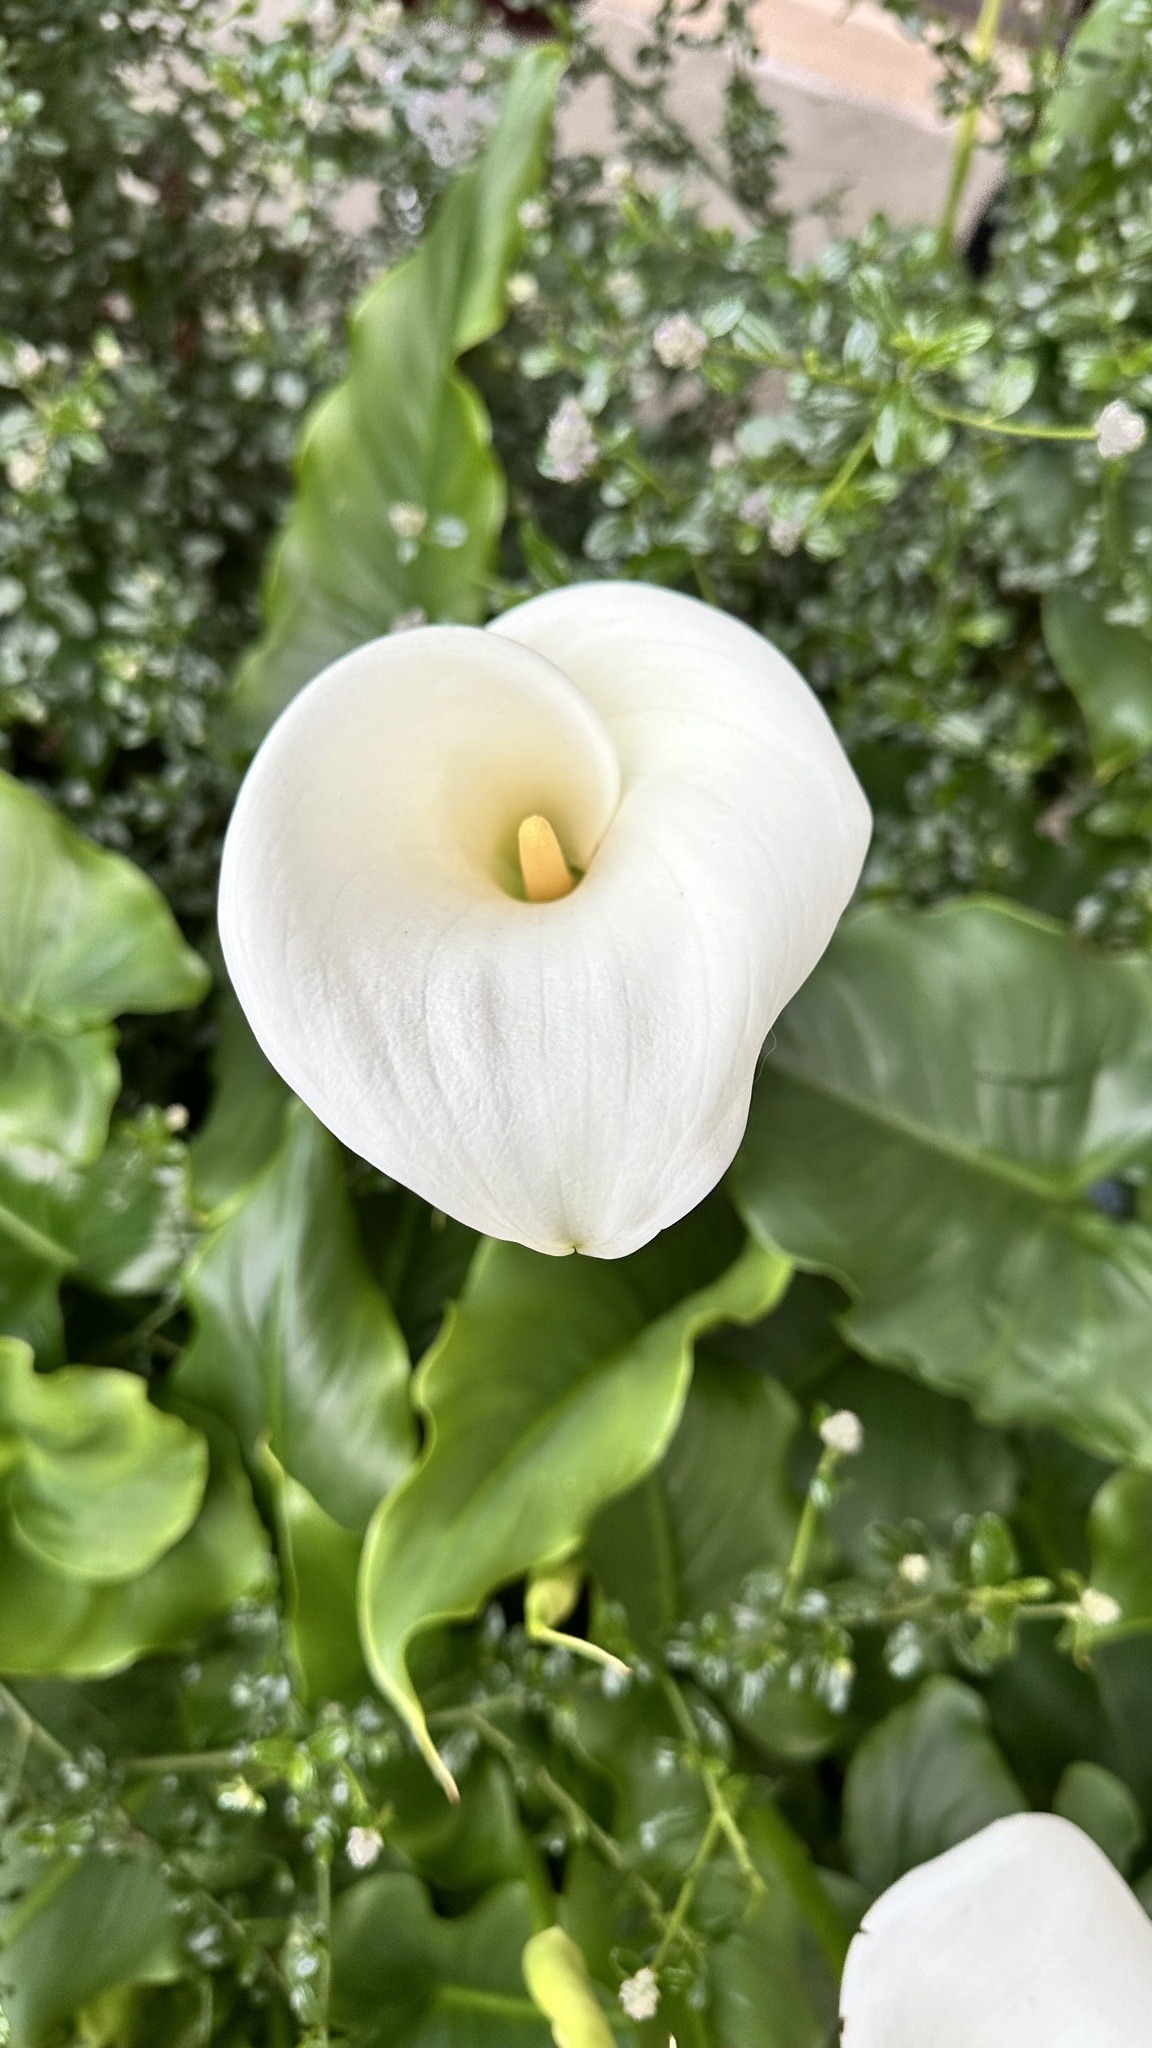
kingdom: Plantae
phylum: Tracheophyta
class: Liliopsida
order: Alismatales
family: Araceae
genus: Zantedeschia
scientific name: Zantedeschia aethiopica
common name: Altar-lily
